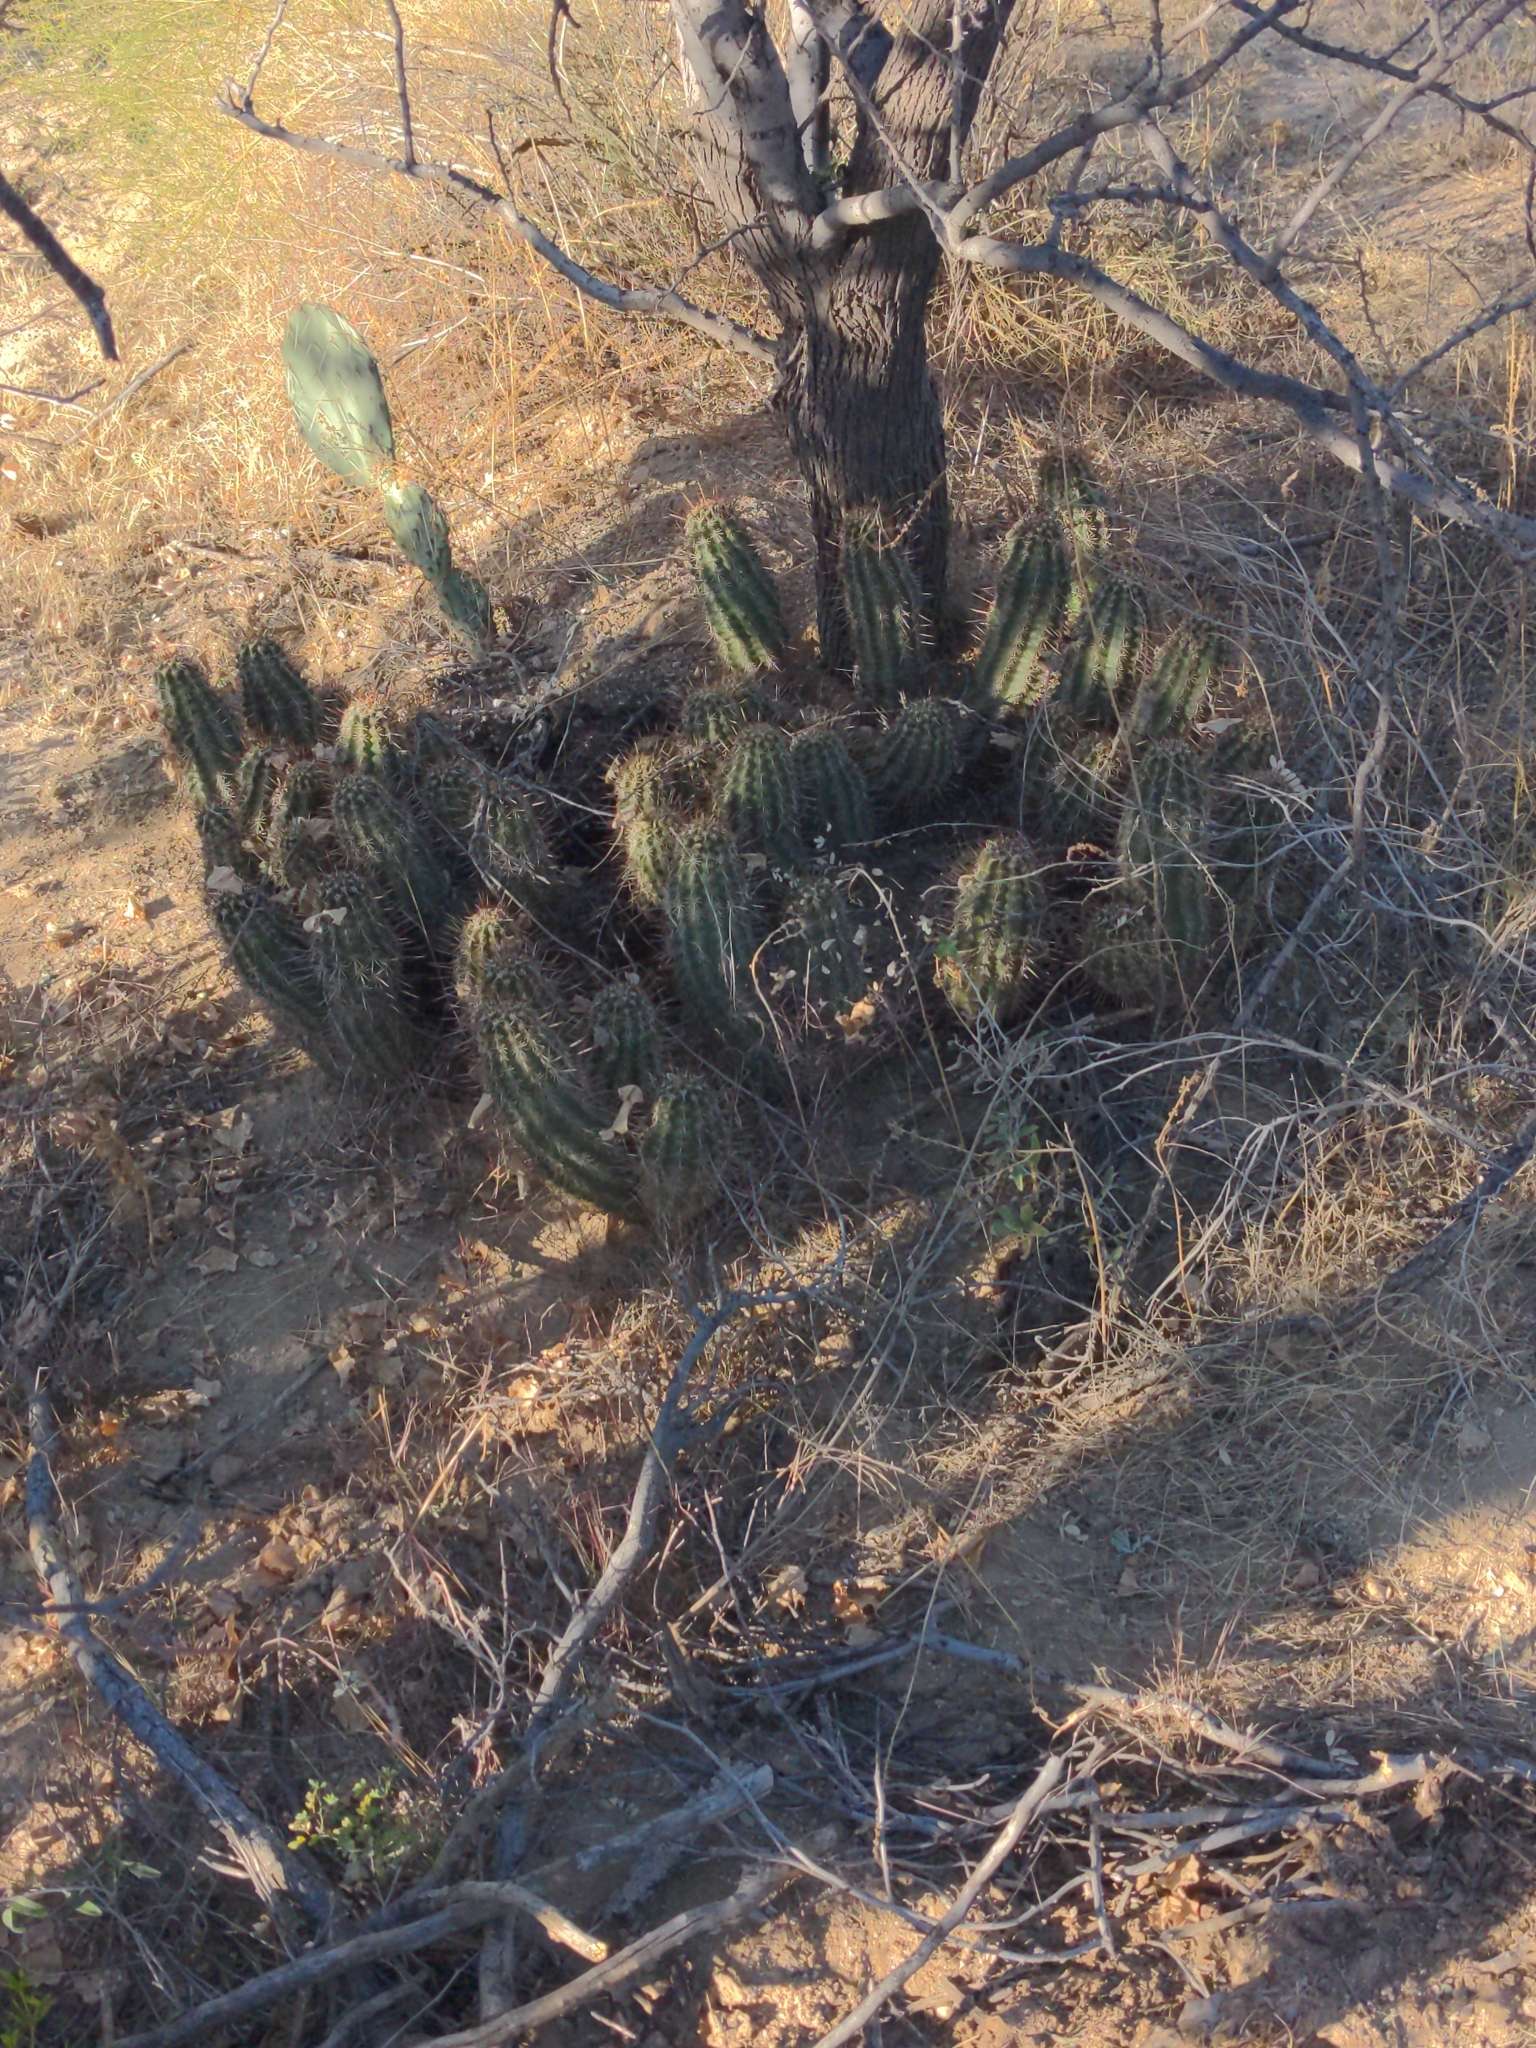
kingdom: Plantae
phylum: Tracheophyta
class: Magnoliopsida
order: Caryophyllales
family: Cactaceae
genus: Echinocereus
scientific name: Echinocereus engelmannii
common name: Engelmann's hedgehog cactus
